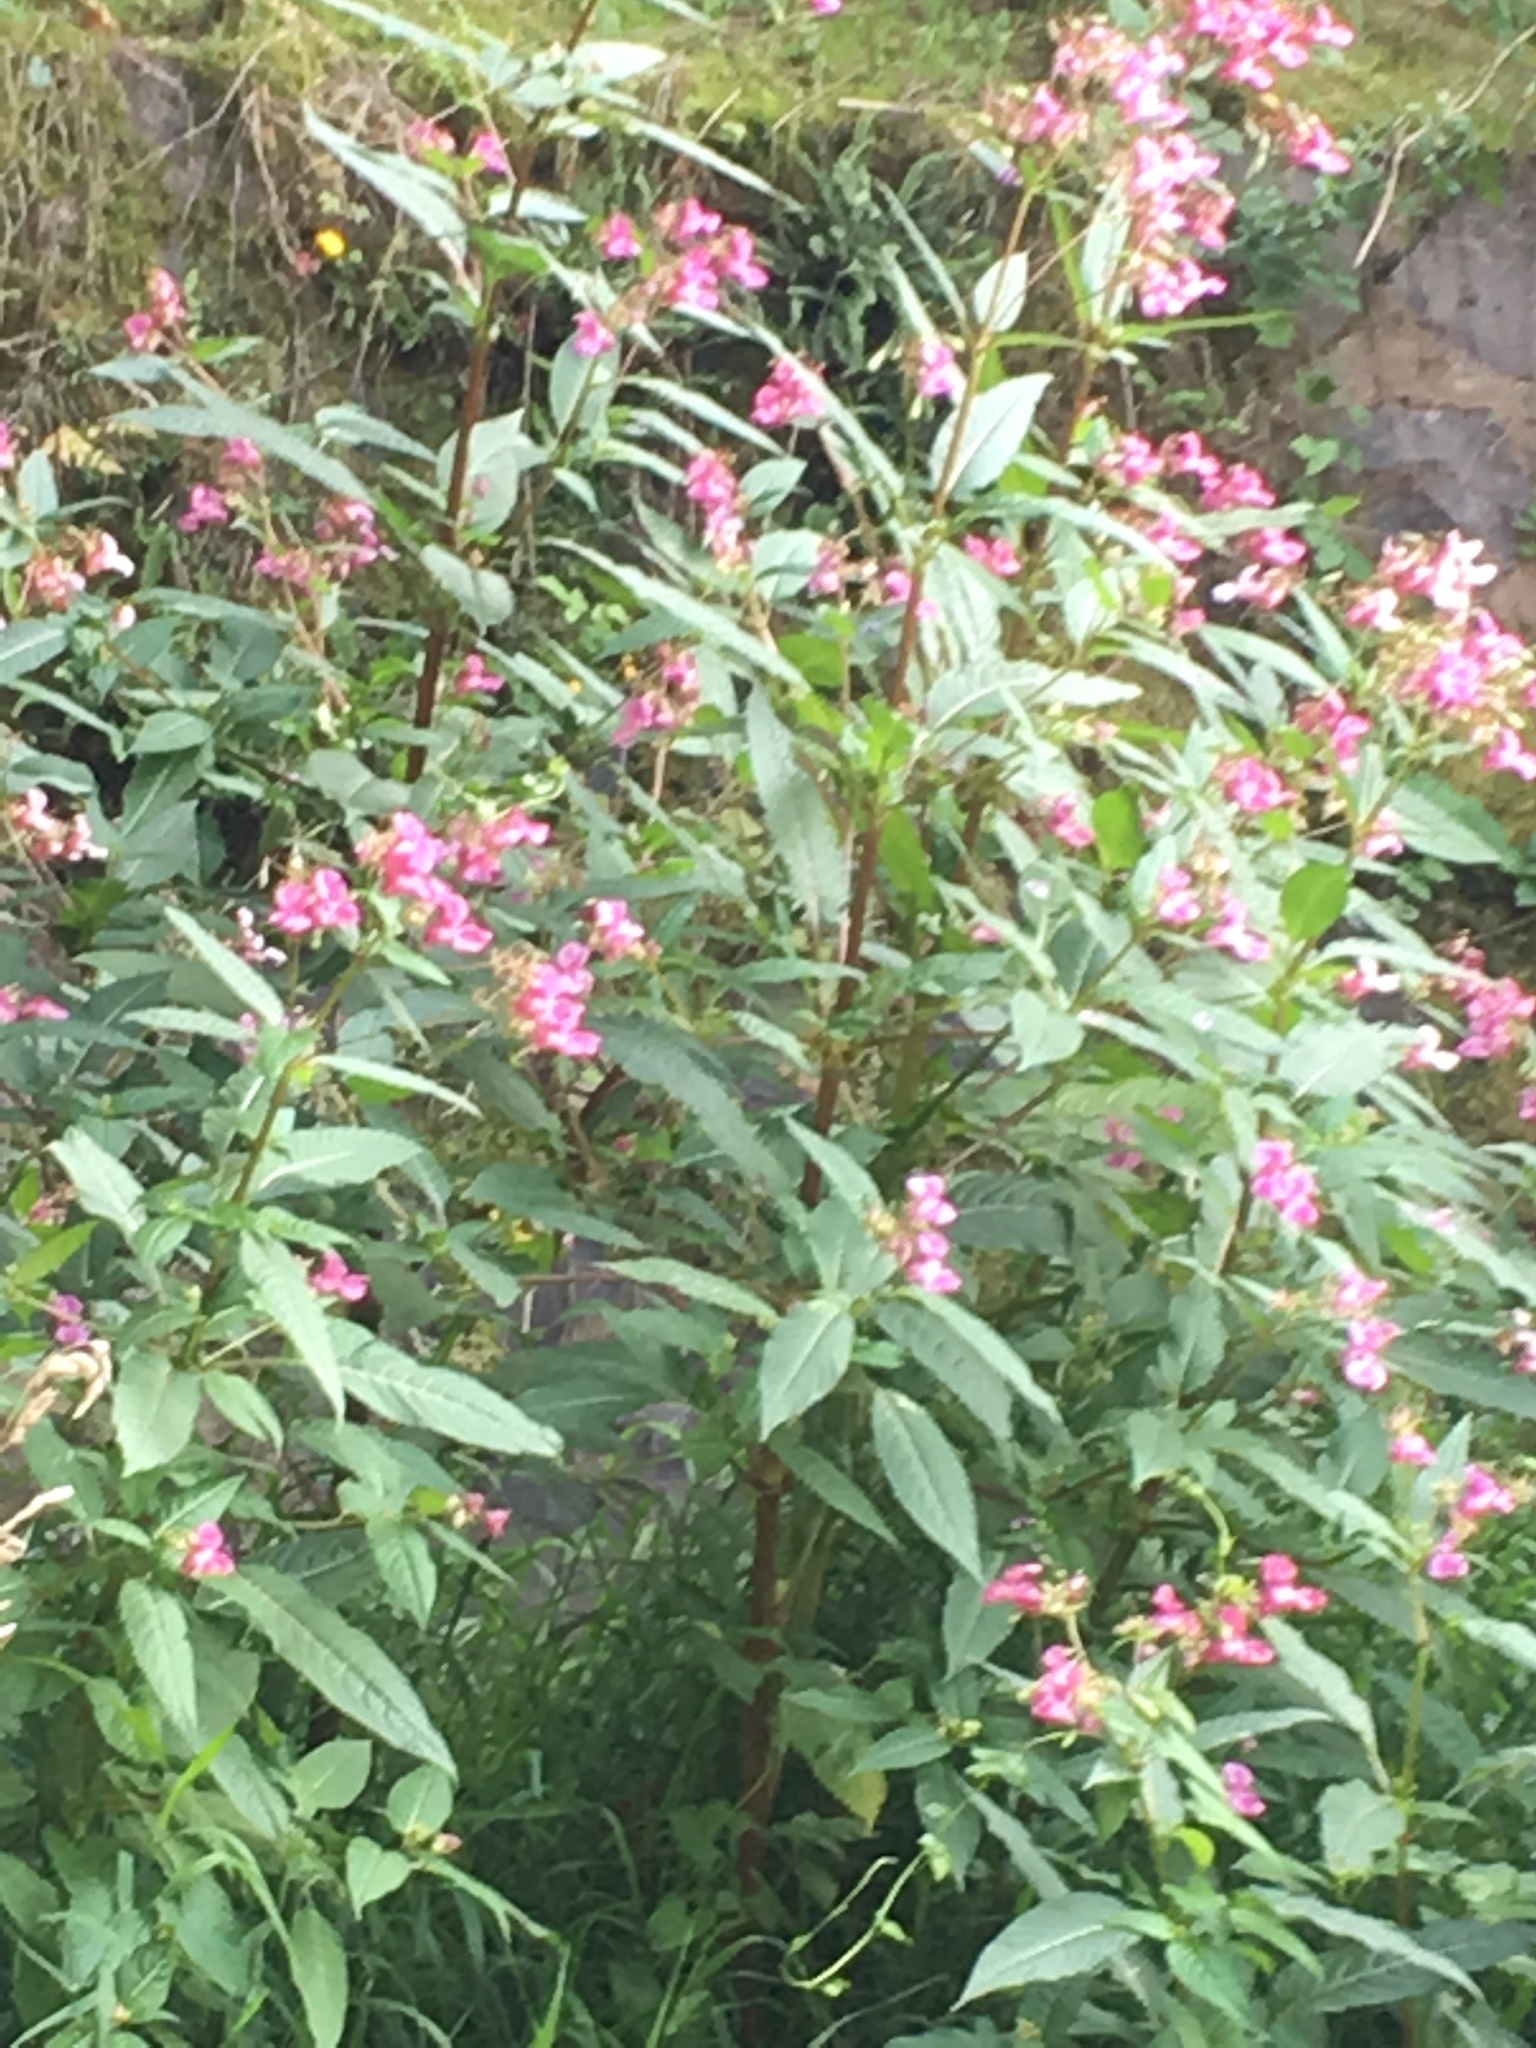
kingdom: Plantae
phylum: Tracheophyta
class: Magnoliopsida
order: Ericales
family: Balsaminaceae
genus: Impatiens
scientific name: Impatiens glandulifera
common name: Himalayan balsam
